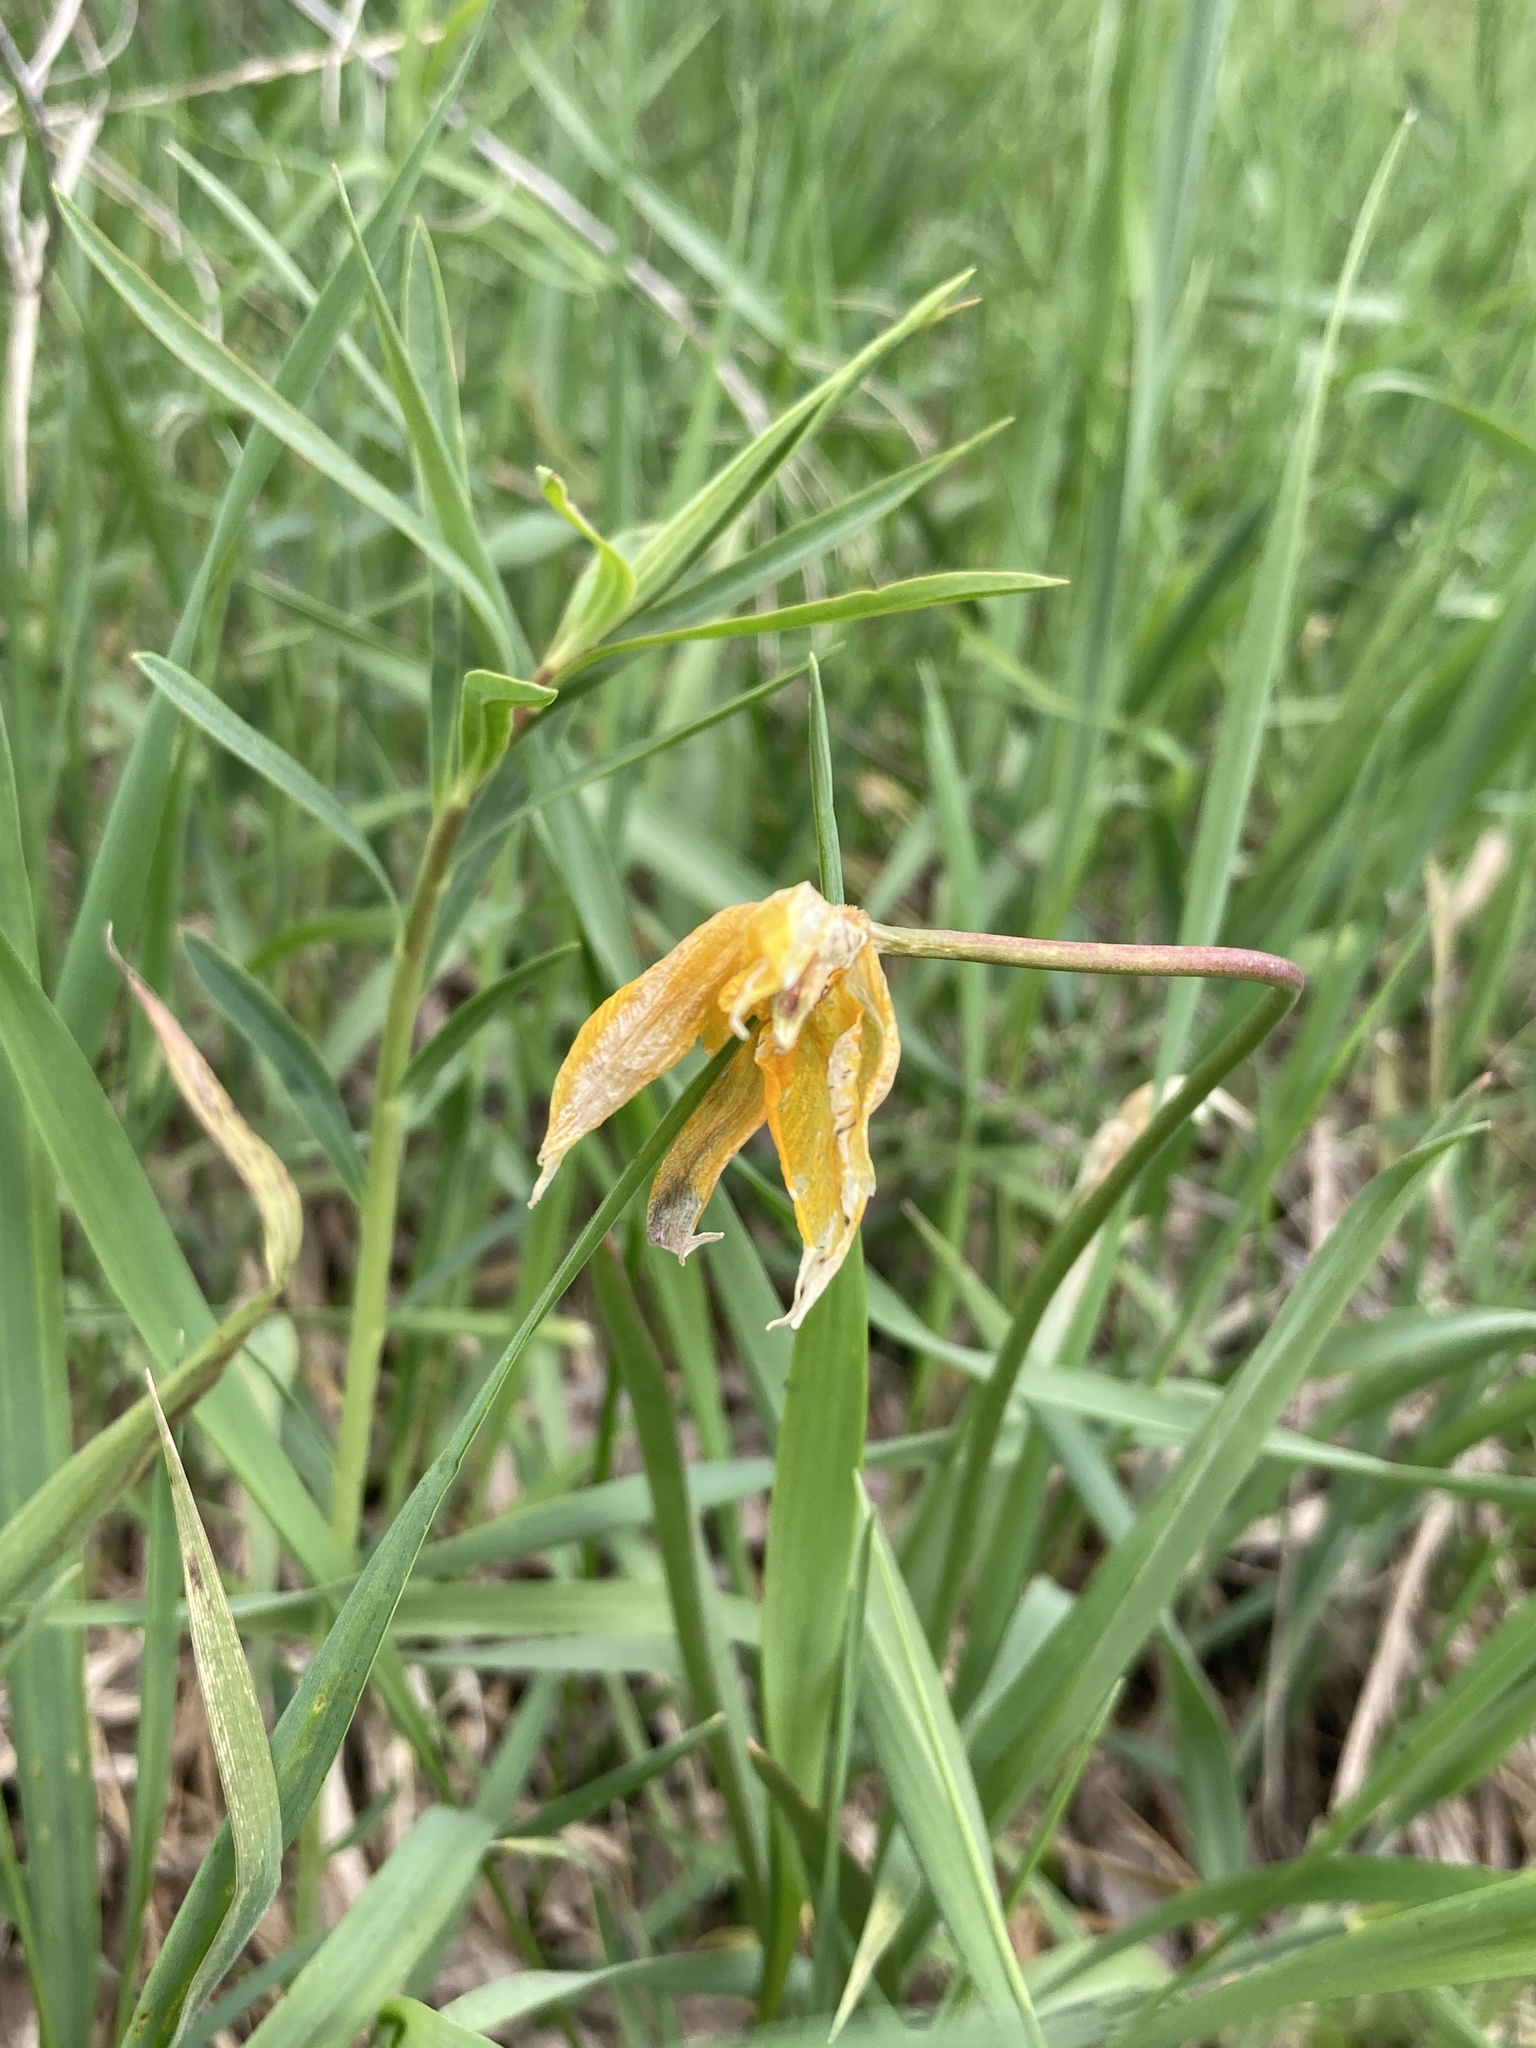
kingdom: Plantae
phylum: Tracheophyta
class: Liliopsida
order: Liliales
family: Liliaceae
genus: Tulipa
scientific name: Tulipa sylvestris
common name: Wild tulip
